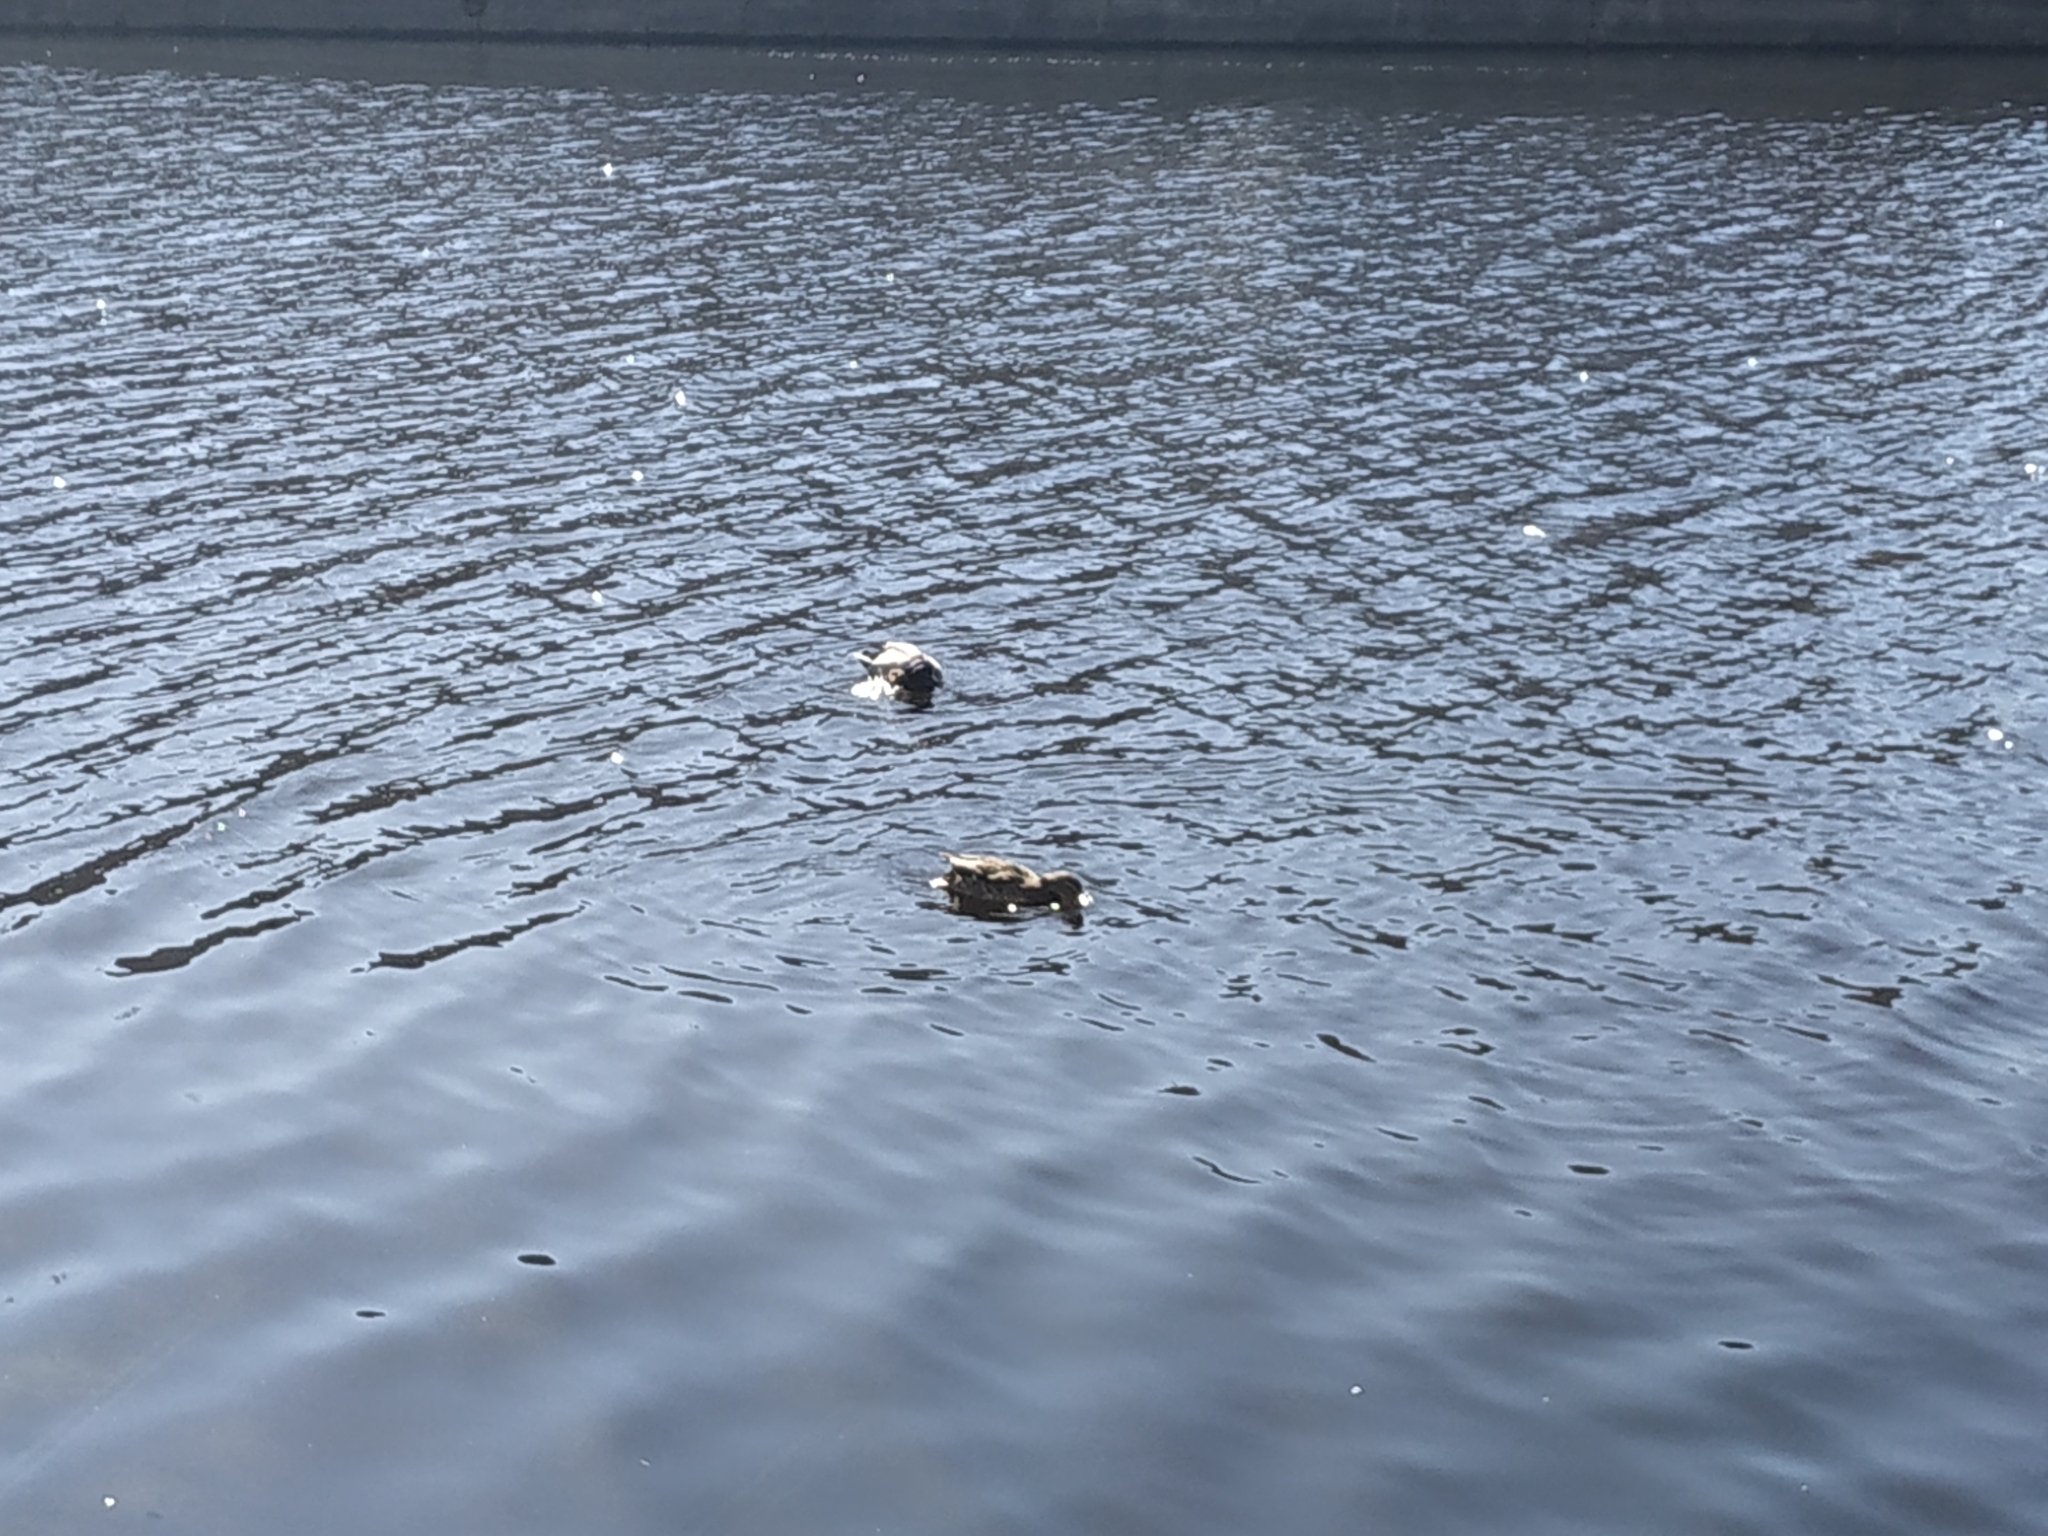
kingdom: Animalia
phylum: Chordata
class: Aves
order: Anseriformes
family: Anatidae
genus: Anas
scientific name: Anas platyrhynchos
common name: Mallard
